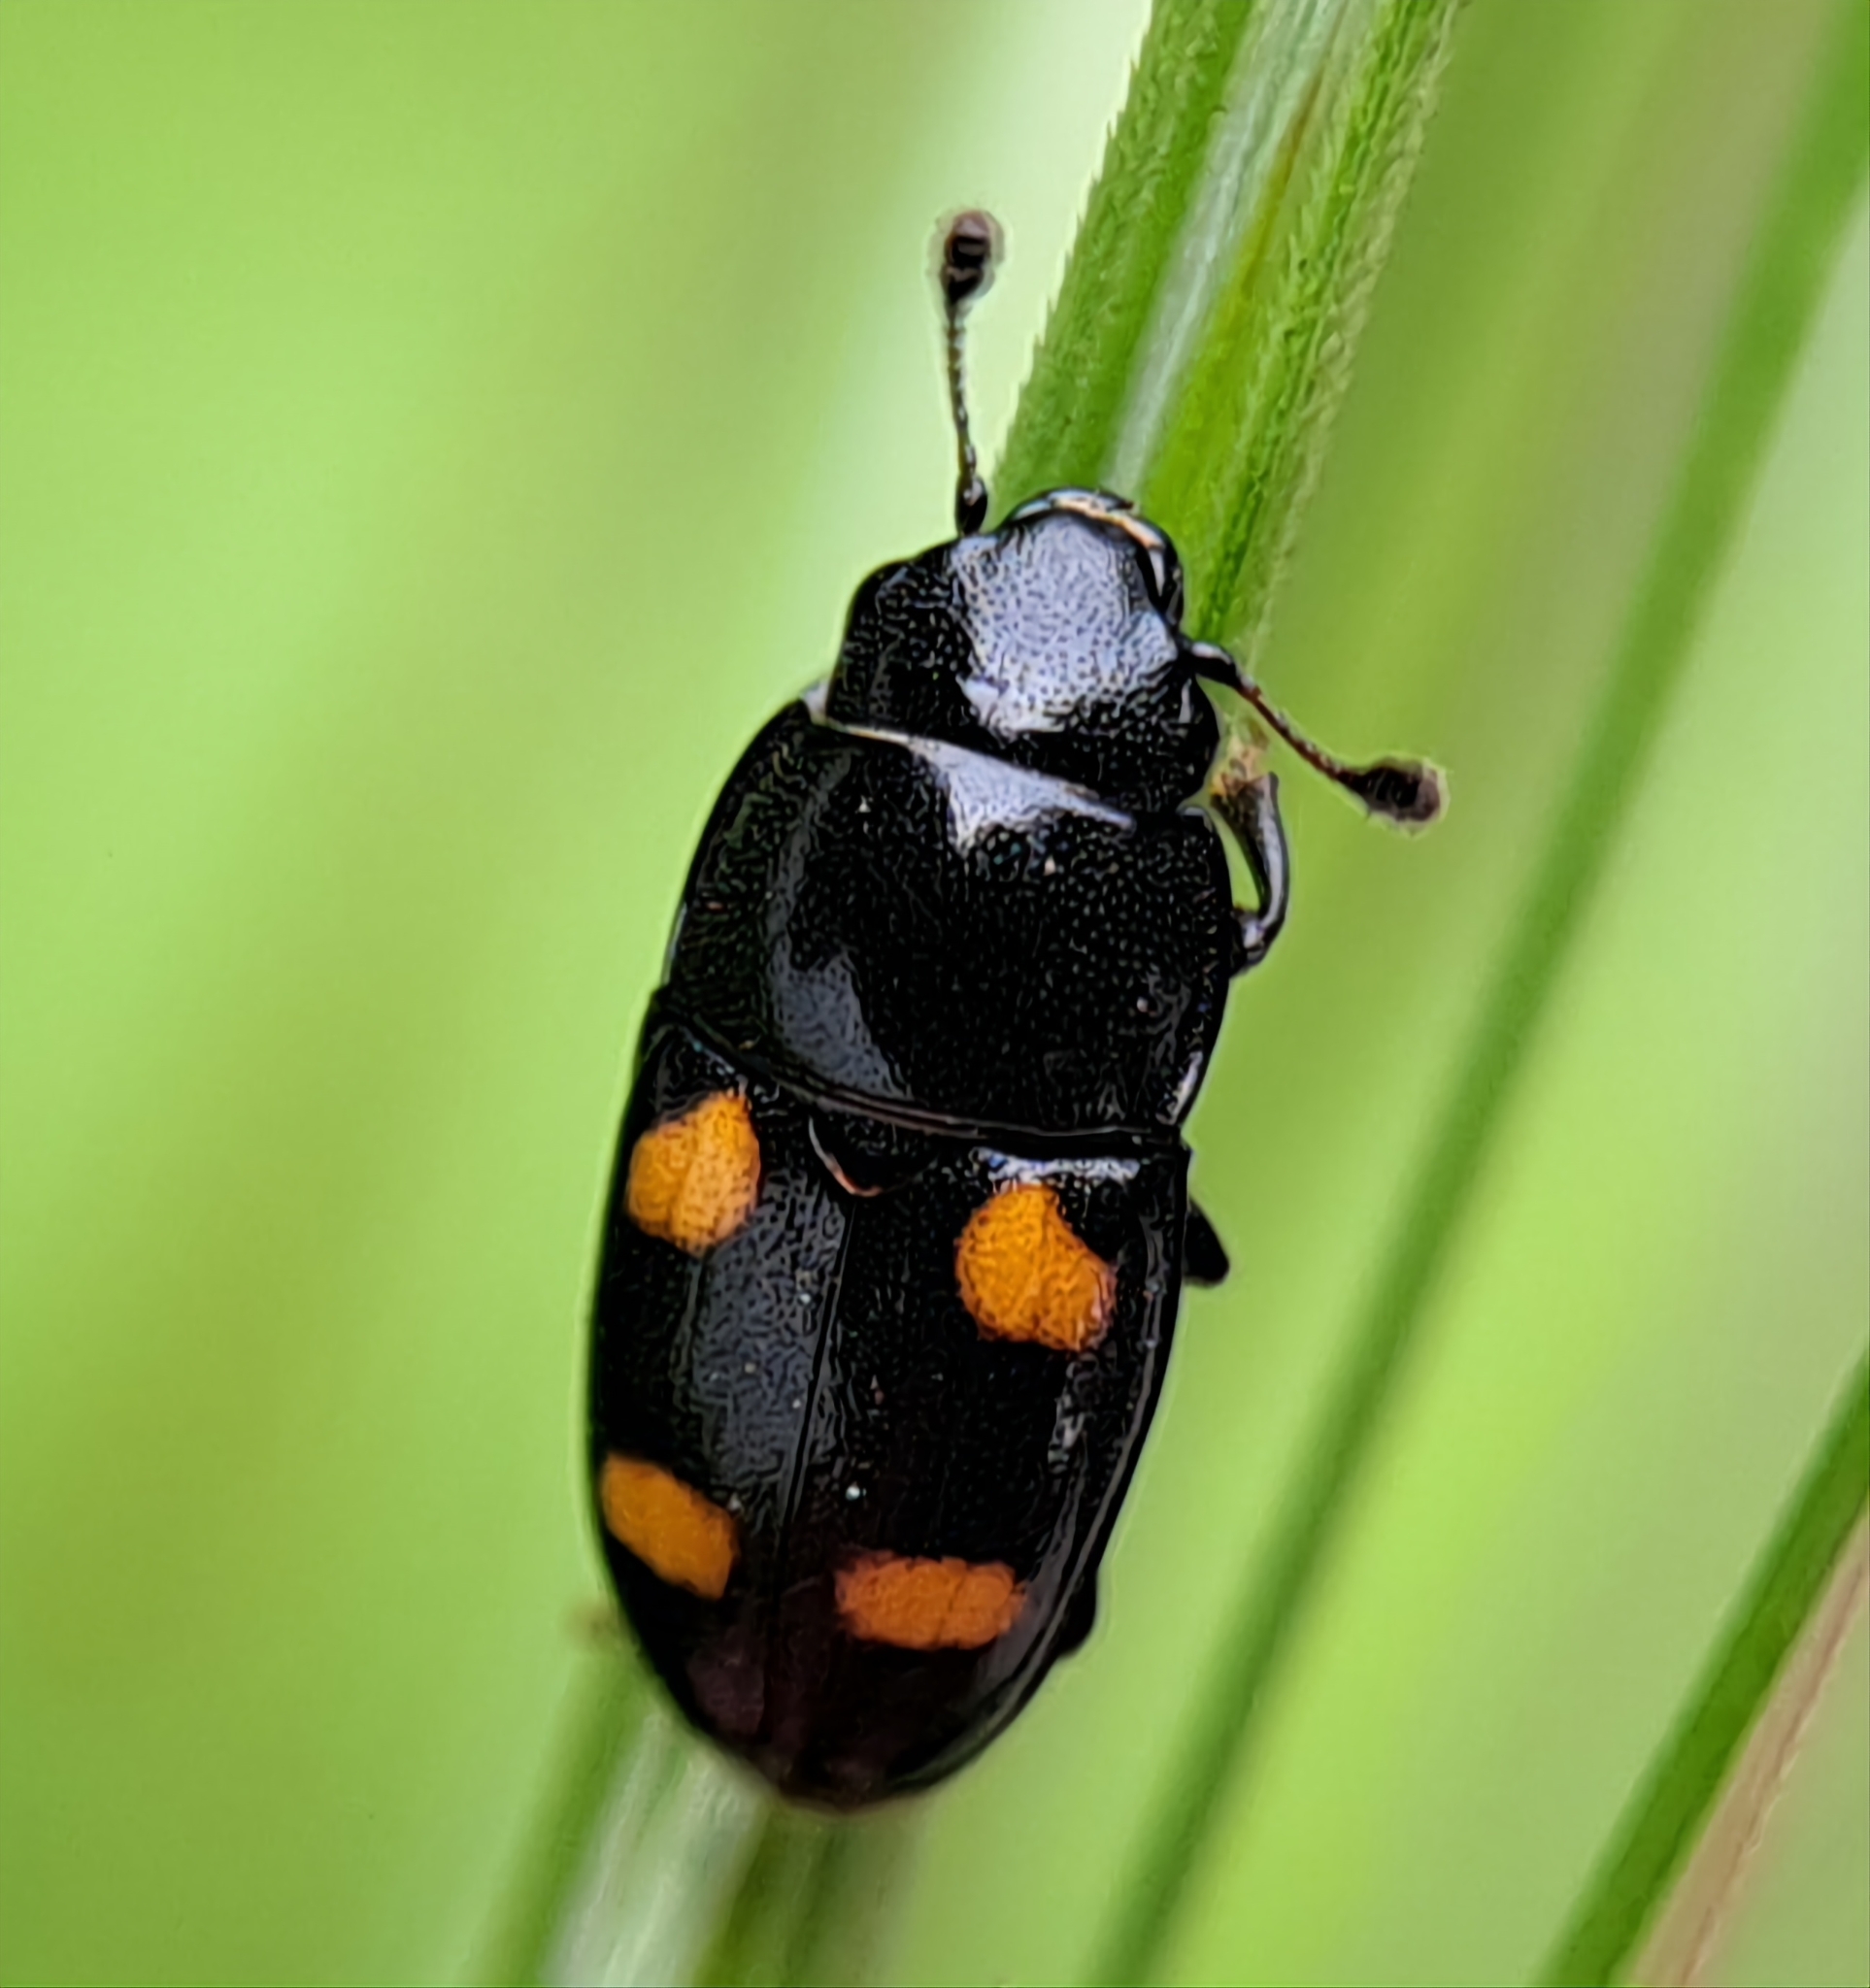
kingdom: Animalia
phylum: Arthropoda
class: Insecta
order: Coleoptera
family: Nitidulidae
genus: Glischrochilus
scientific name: Glischrochilus hortensis
